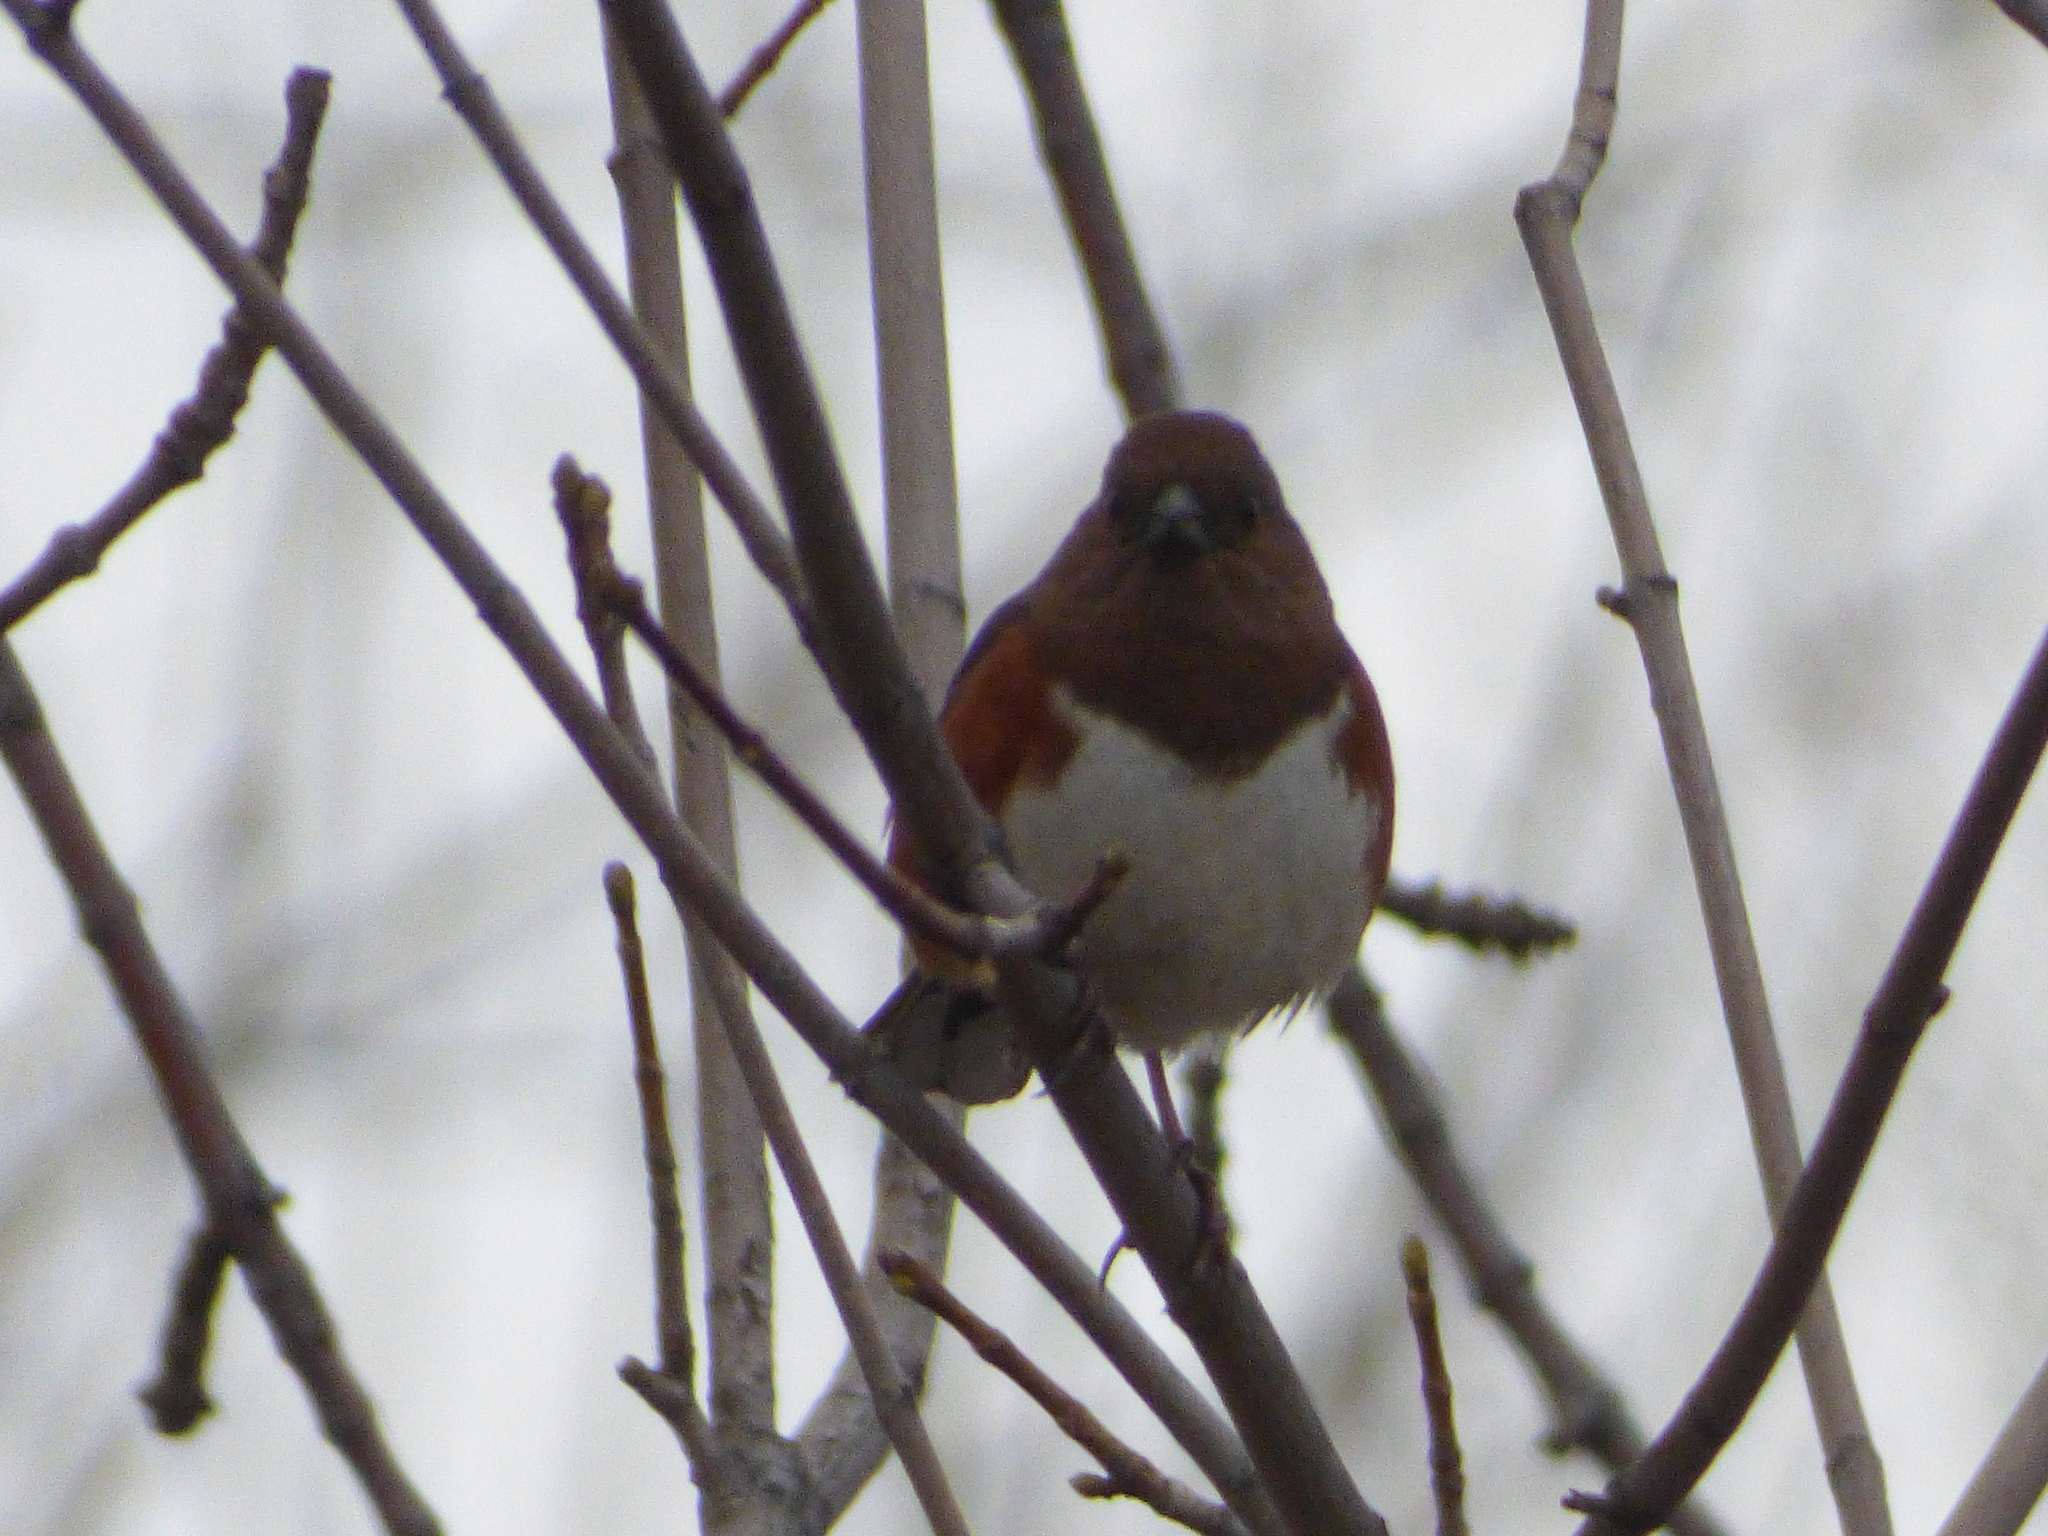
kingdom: Animalia
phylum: Chordata
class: Aves
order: Passeriformes
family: Passerellidae
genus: Pipilo
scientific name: Pipilo erythrophthalmus
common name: Eastern towhee
